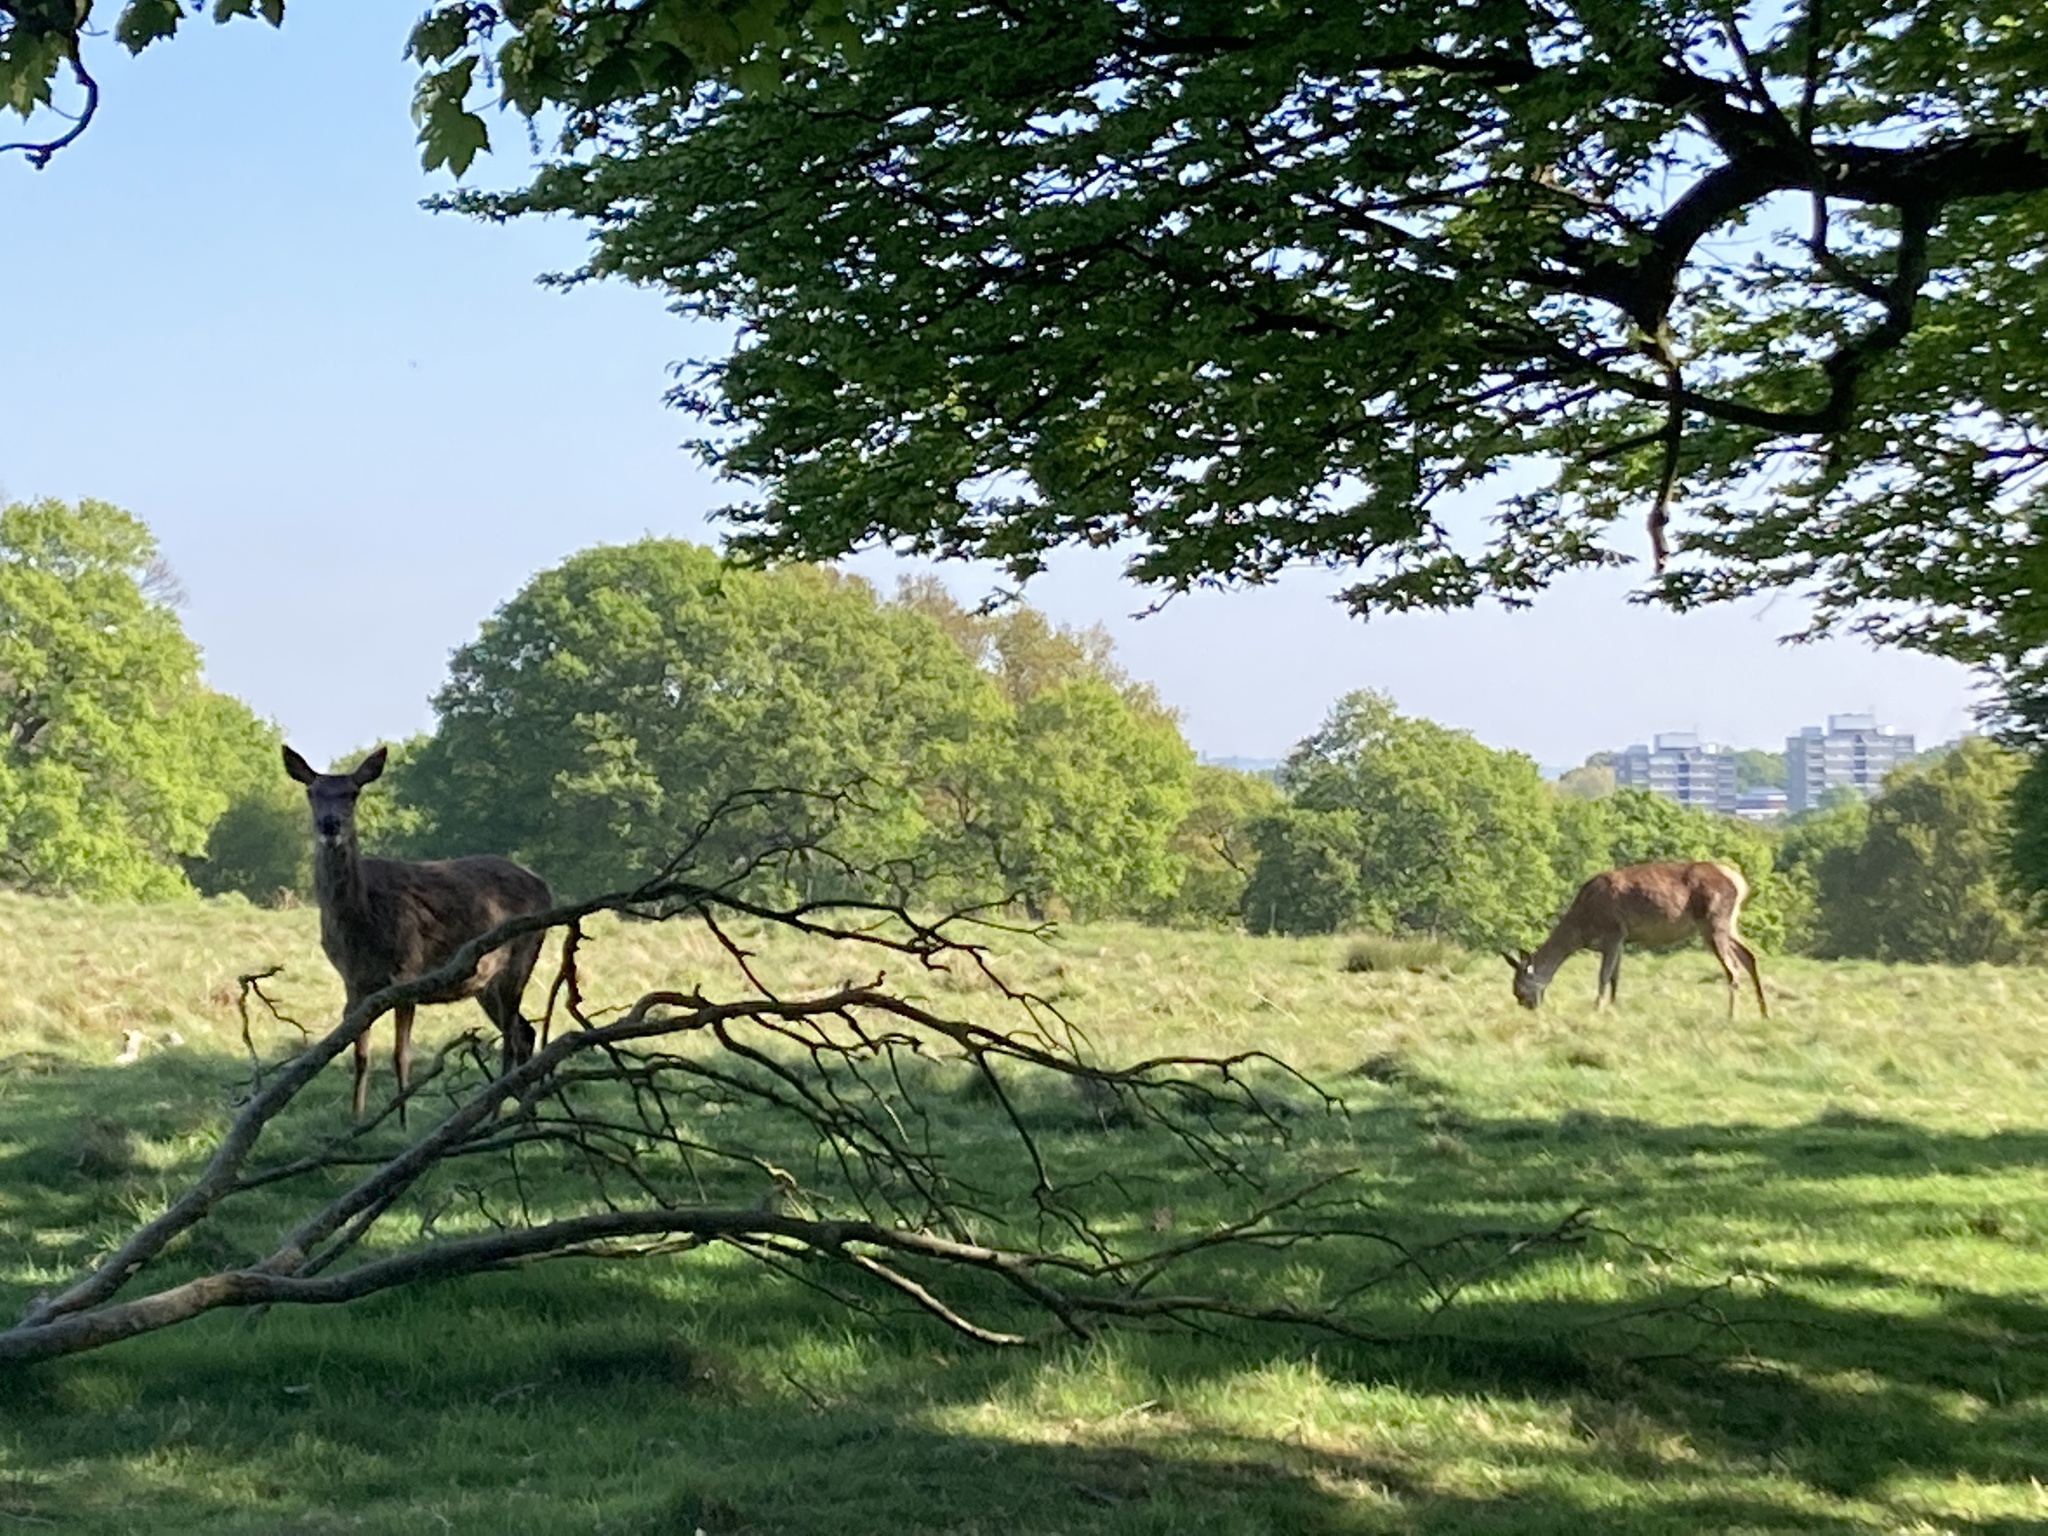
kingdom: Animalia
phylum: Chordata
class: Mammalia
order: Artiodactyla
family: Cervidae
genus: Cervus
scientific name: Cervus elaphus
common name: Red deer
